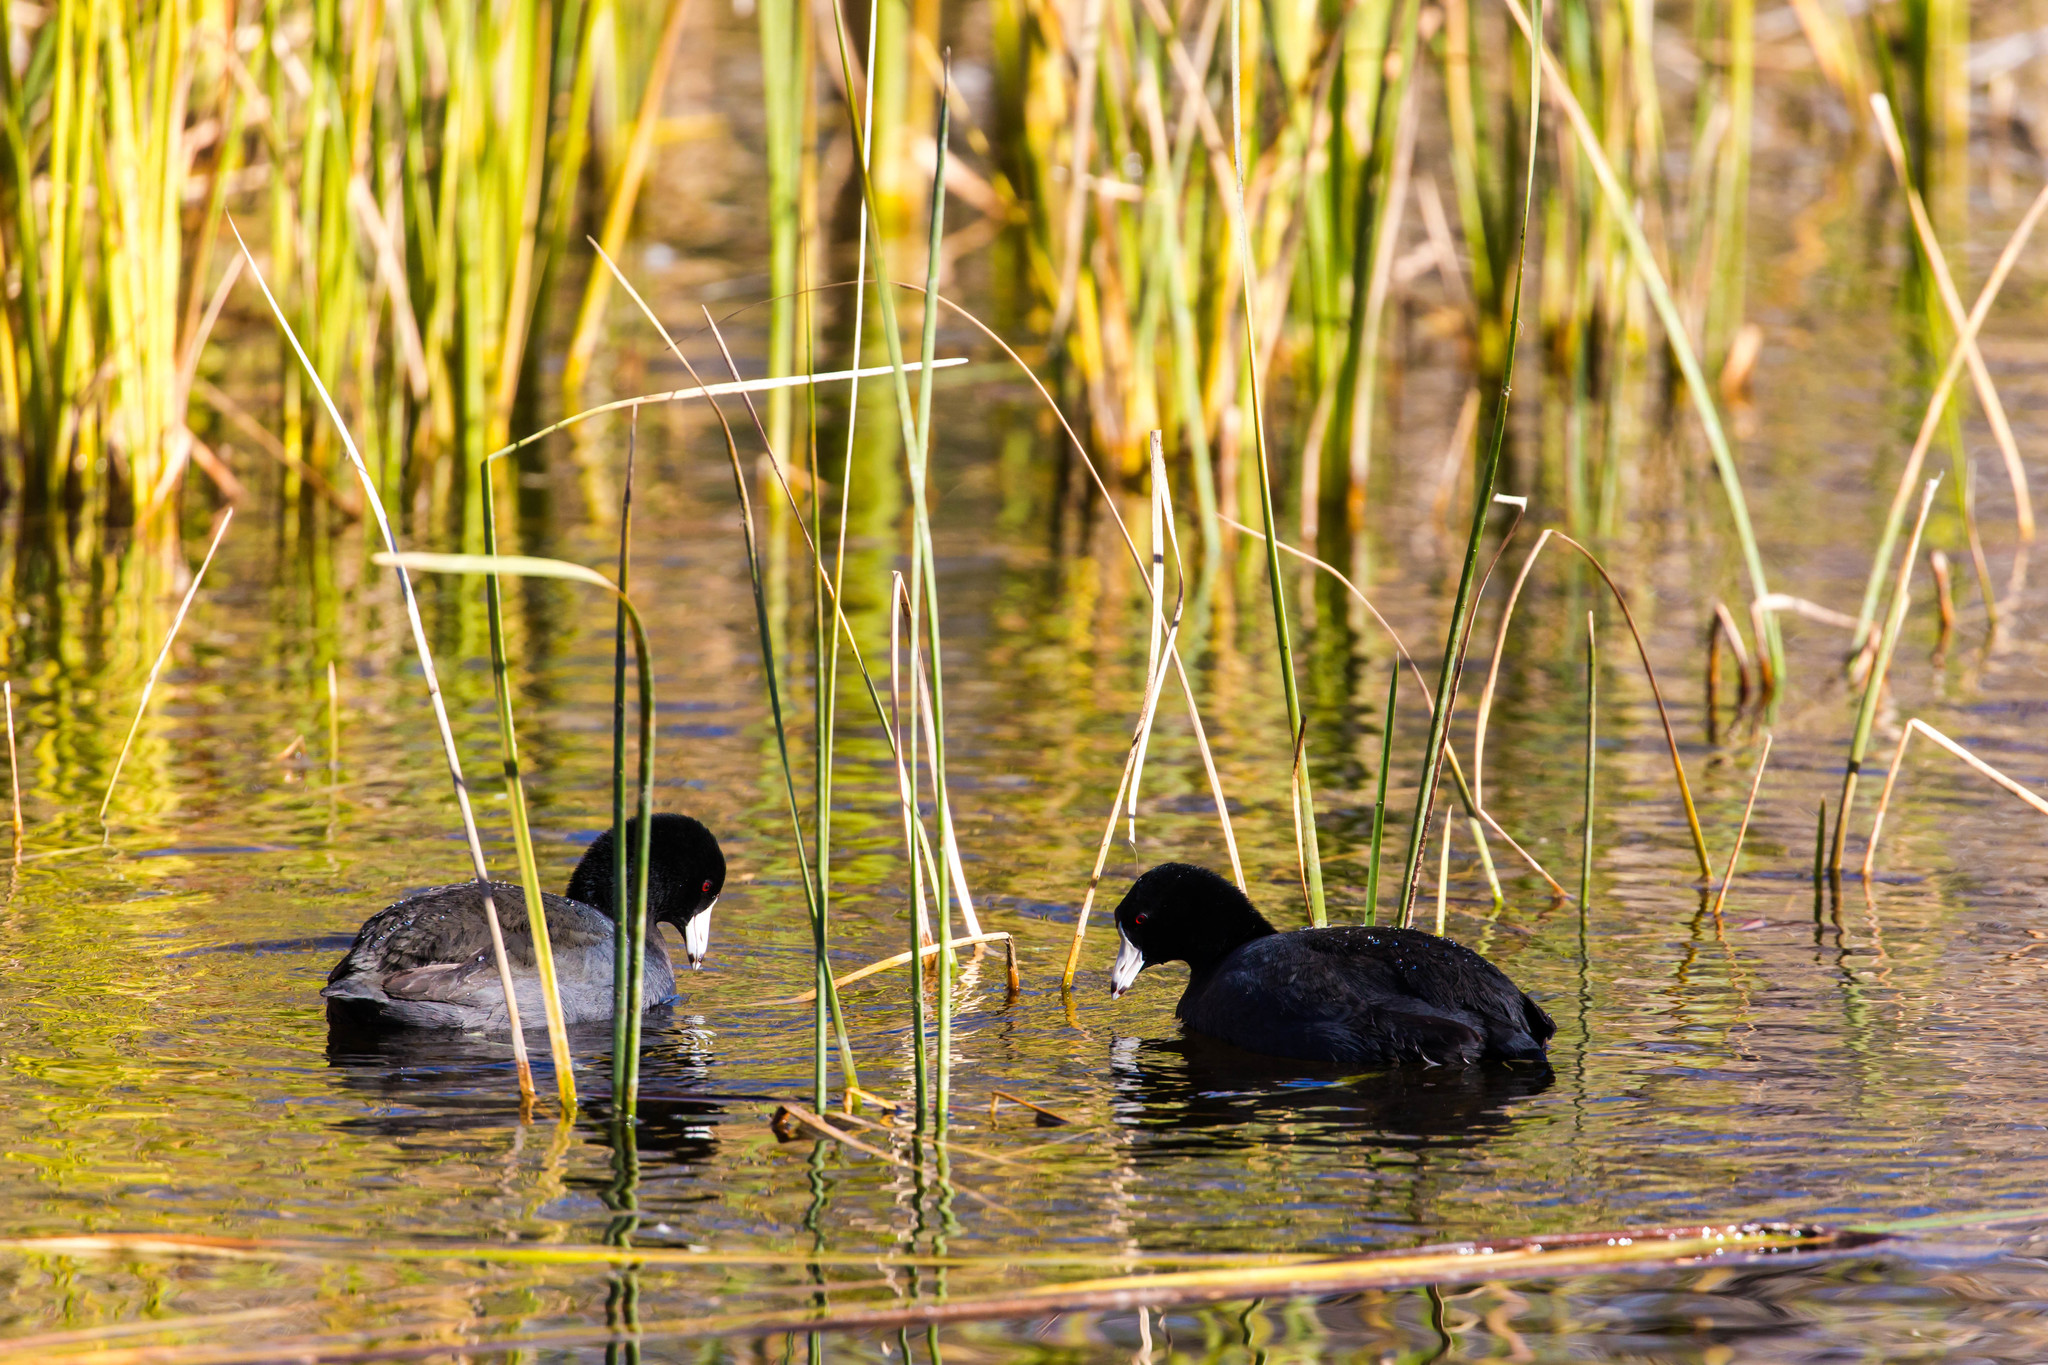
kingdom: Animalia
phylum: Chordata
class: Aves
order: Gruiformes
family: Rallidae
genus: Fulica
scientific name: Fulica americana
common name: American coot
